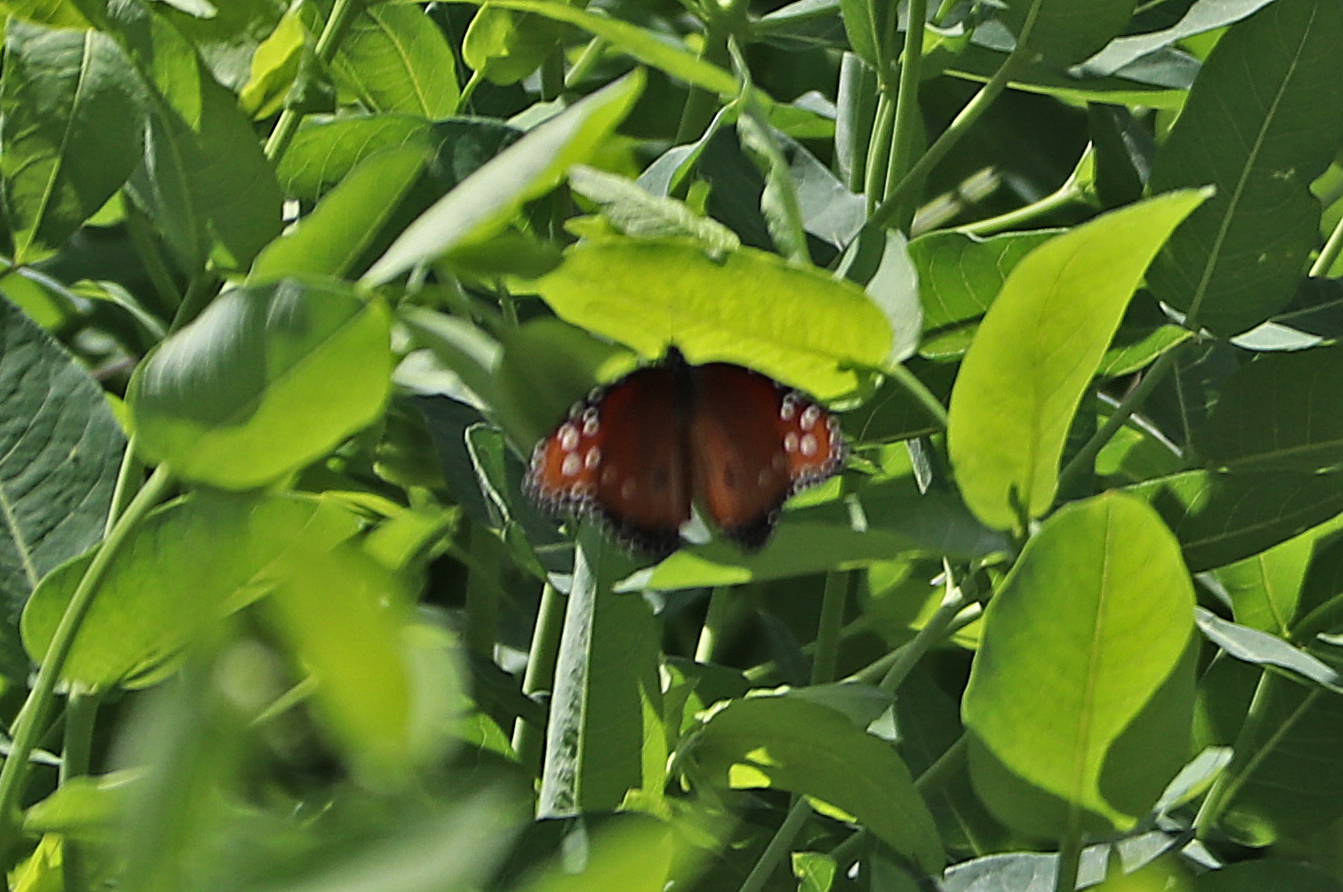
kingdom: Animalia
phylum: Arthropoda
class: Insecta
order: Lepidoptera
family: Nymphalidae
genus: Danaus
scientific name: Danaus gilippus
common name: Queen
